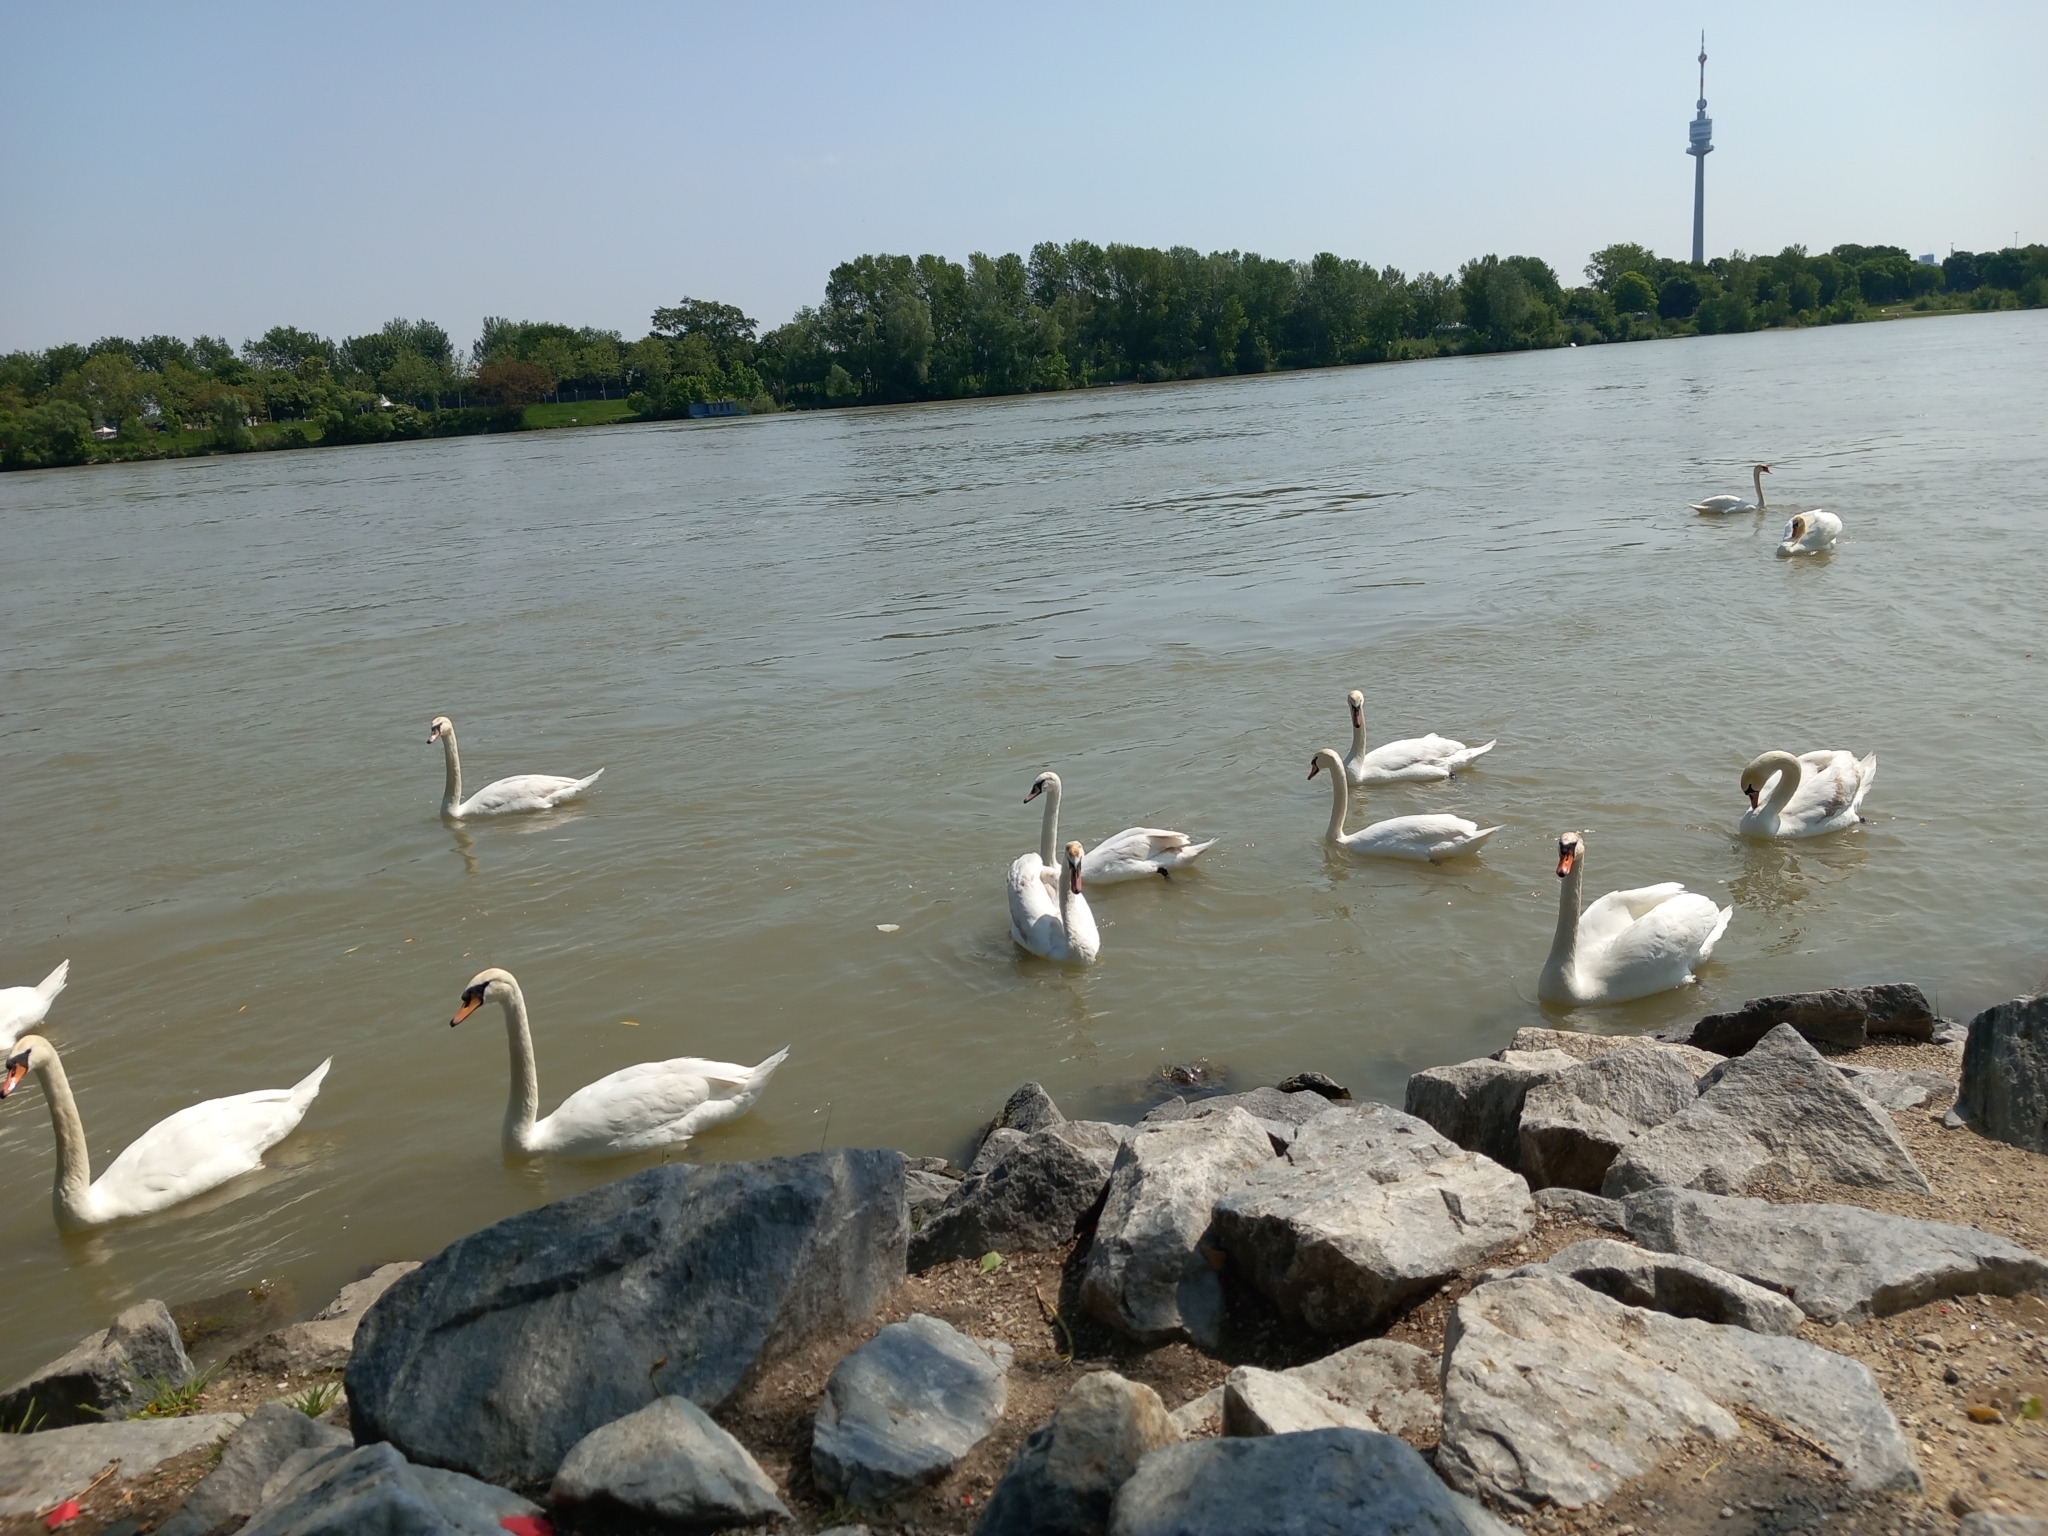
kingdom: Animalia
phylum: Chordata
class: Aves
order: Anseriformes
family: Anatidae
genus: Cygnus
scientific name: Cygnus olor
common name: Mute swan
